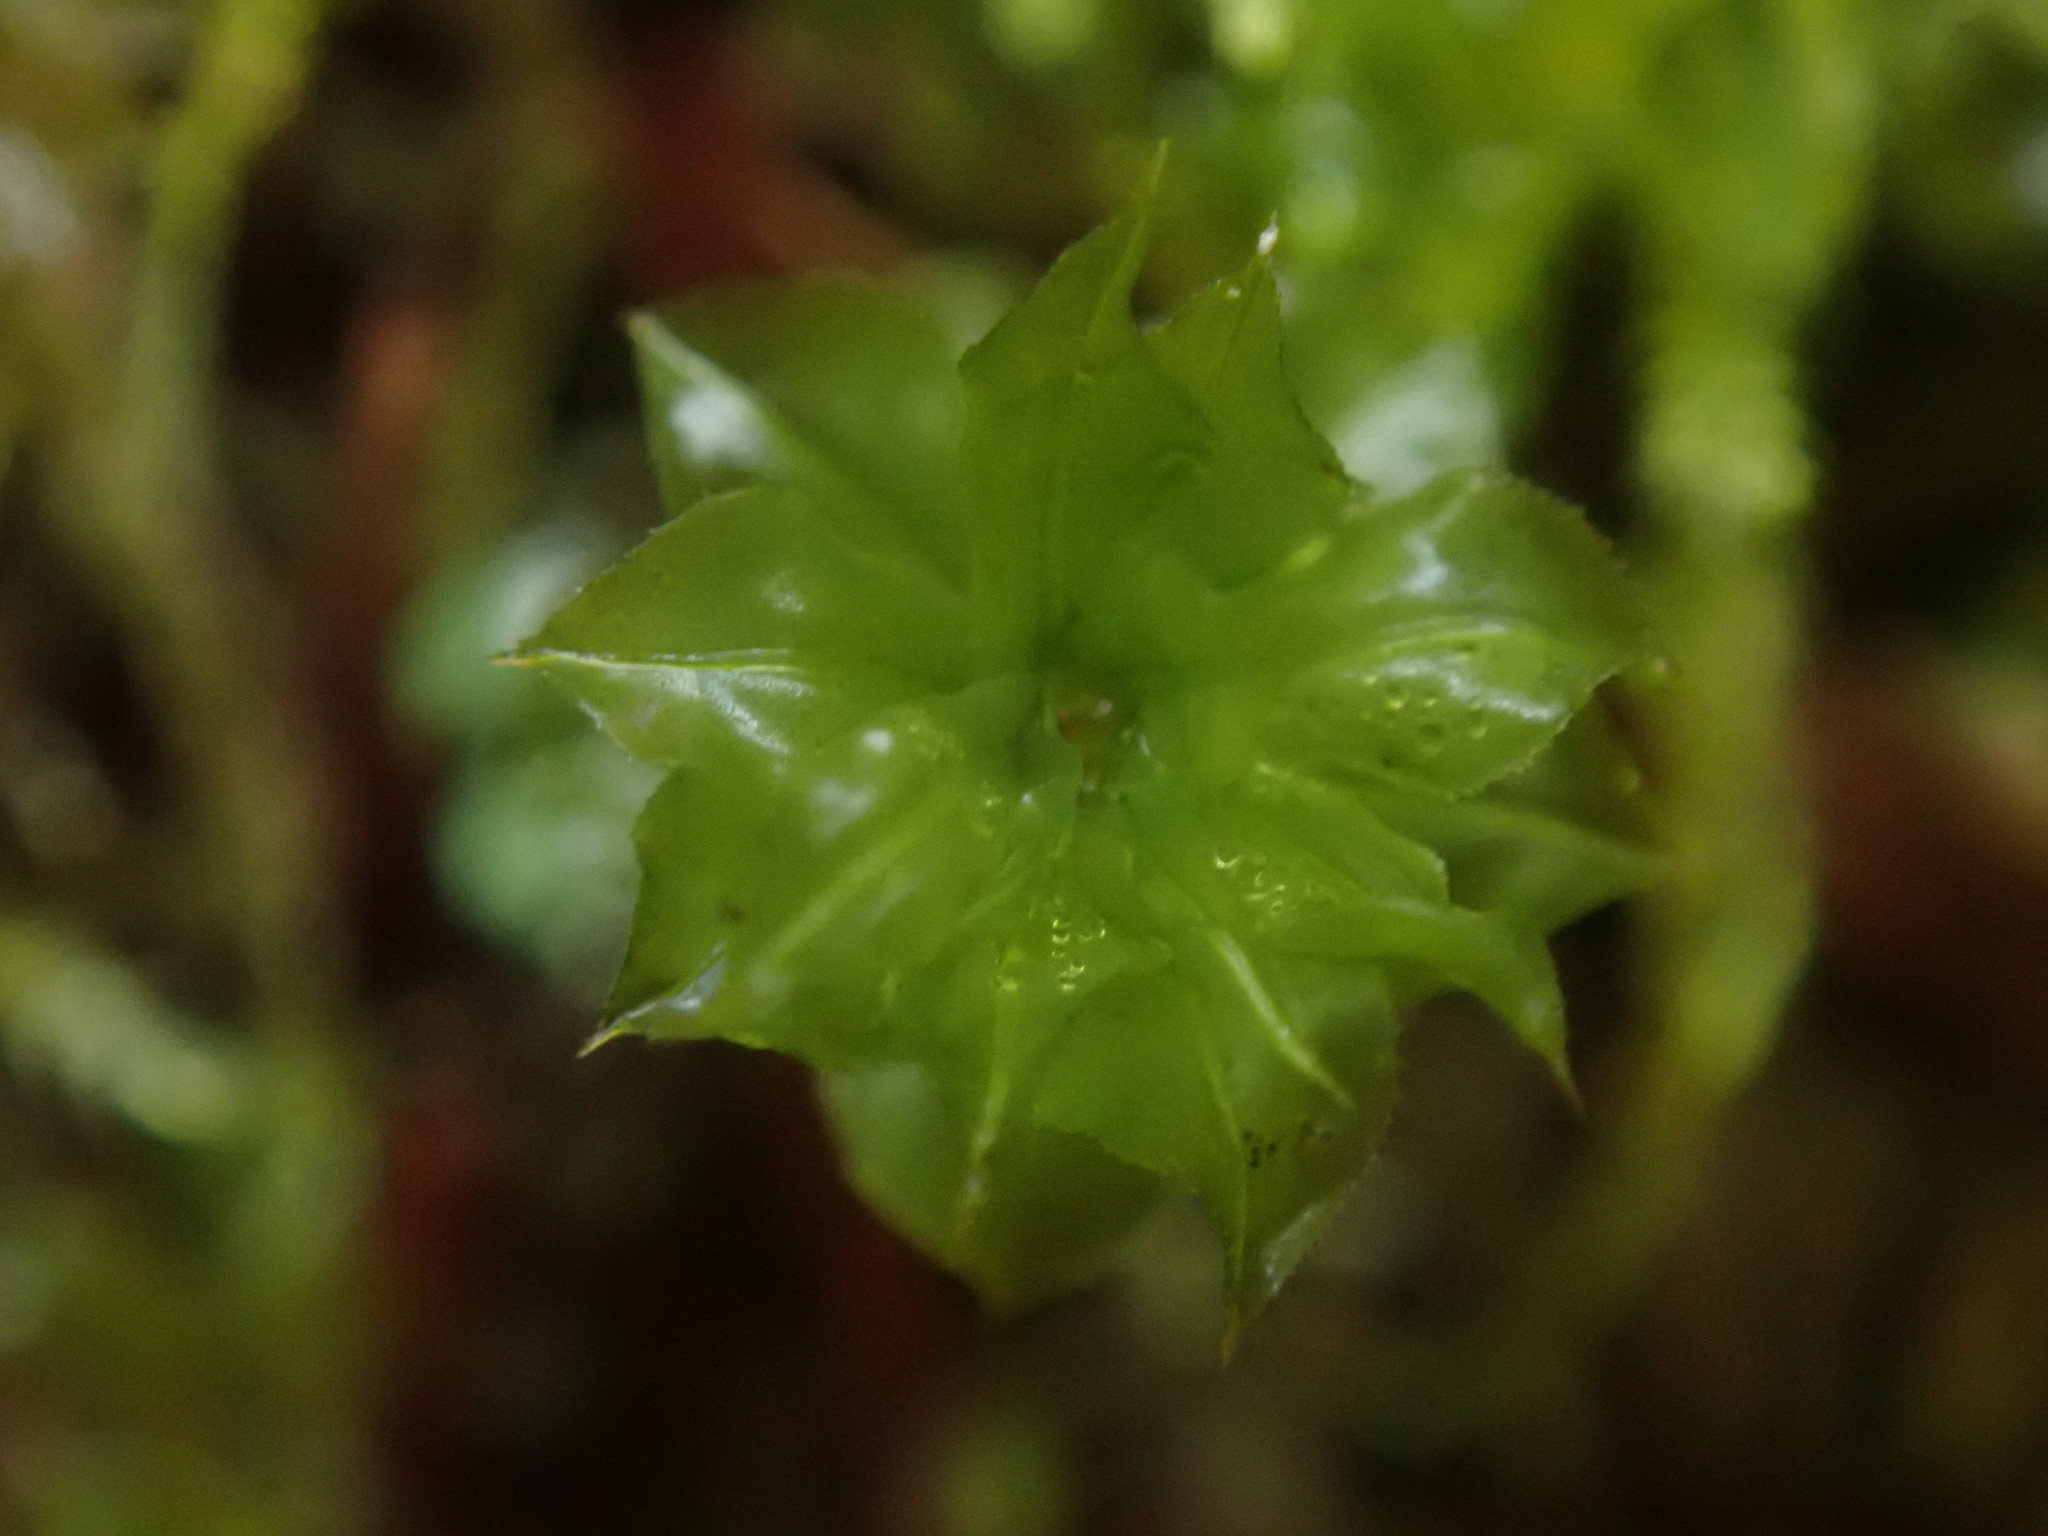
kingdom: Plantae
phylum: Bryophyta
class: Bryopsida
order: Bryales
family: Mniaceae
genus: Plagiomnium
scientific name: Plagiomnium venustum
